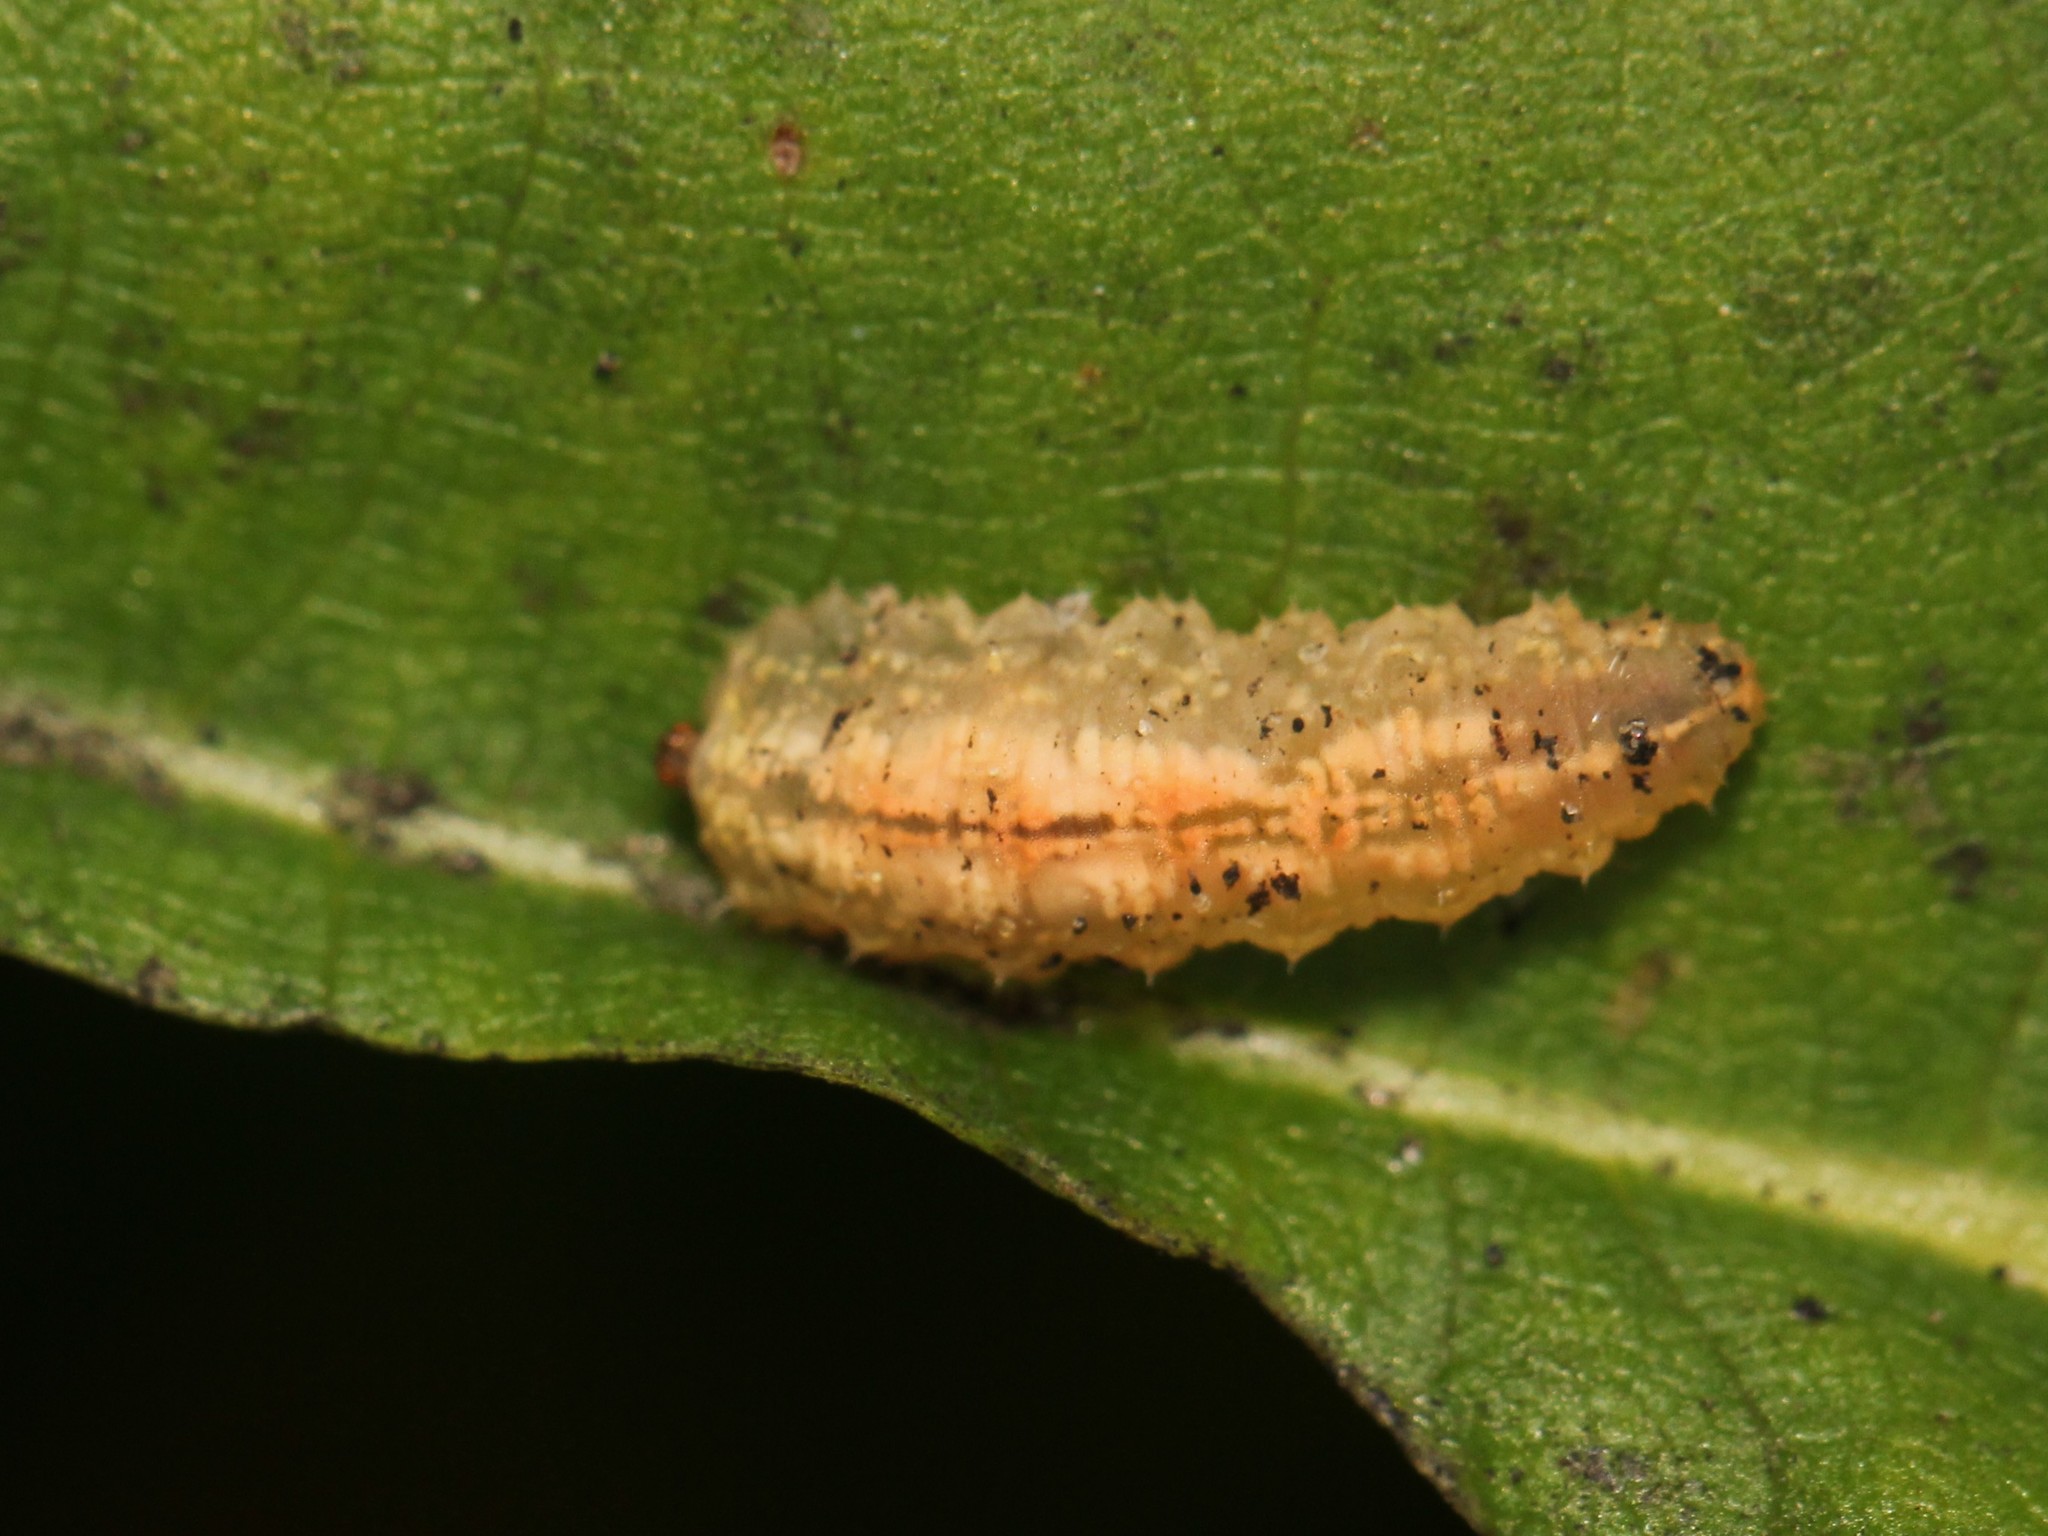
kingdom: Animalia
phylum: Arthropoda
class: Insecta
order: Diptera
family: Syrphidae
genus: Syrphus
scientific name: Syrphus
